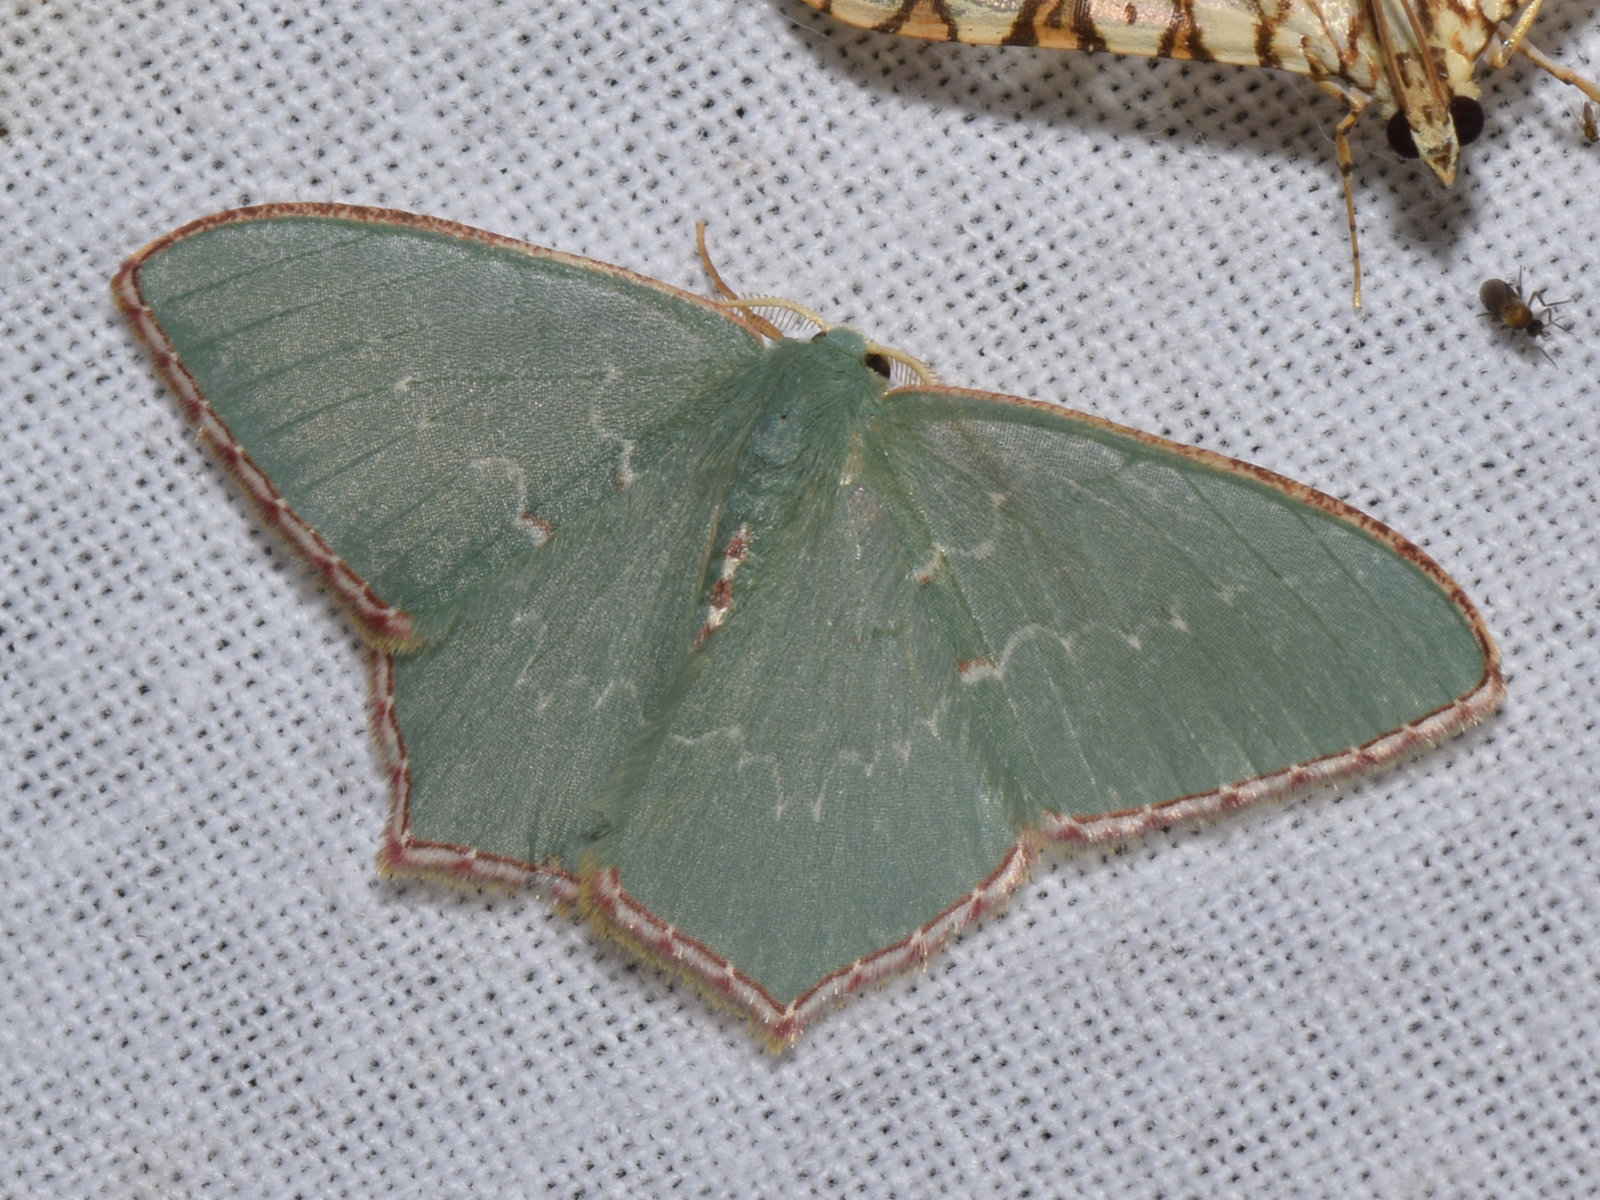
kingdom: Animalia
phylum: Arthropoda
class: Insecta
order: Lepidoptera
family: Geometridae
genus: Hemistola
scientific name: Hemistola rubrimargo
